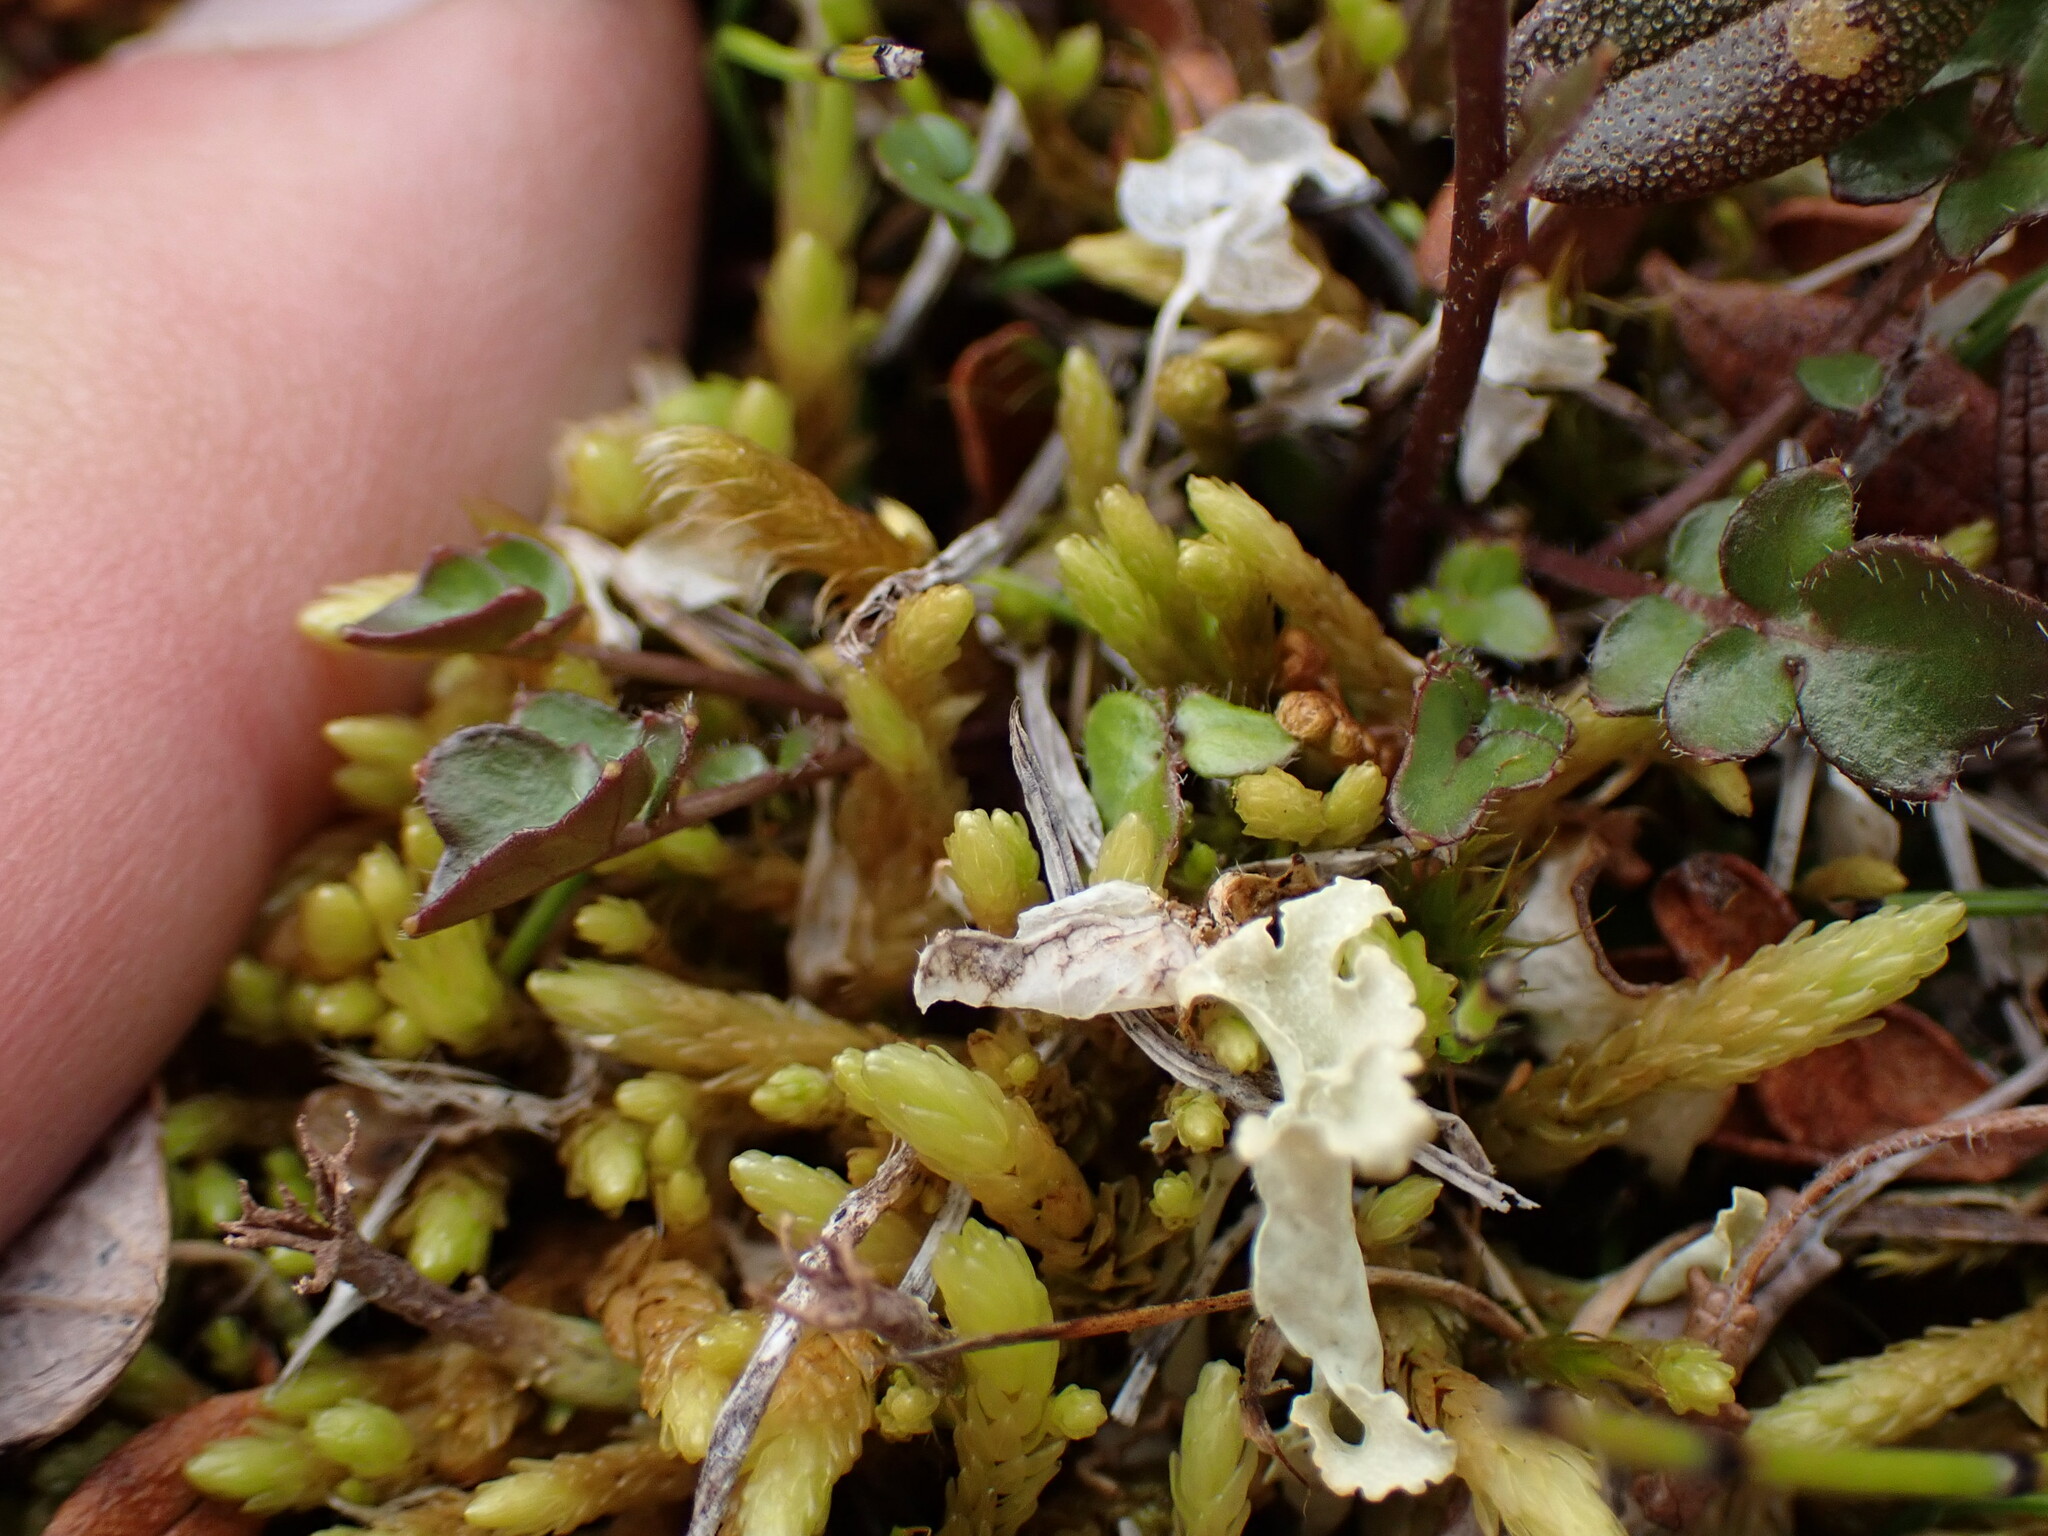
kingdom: Plantae
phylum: Bryophyta
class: Bryopsida
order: Aulacomniales
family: Aulacomniaceae
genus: Aulacomnium
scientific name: Aulacomnium turgidum
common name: Mountain groove moss
